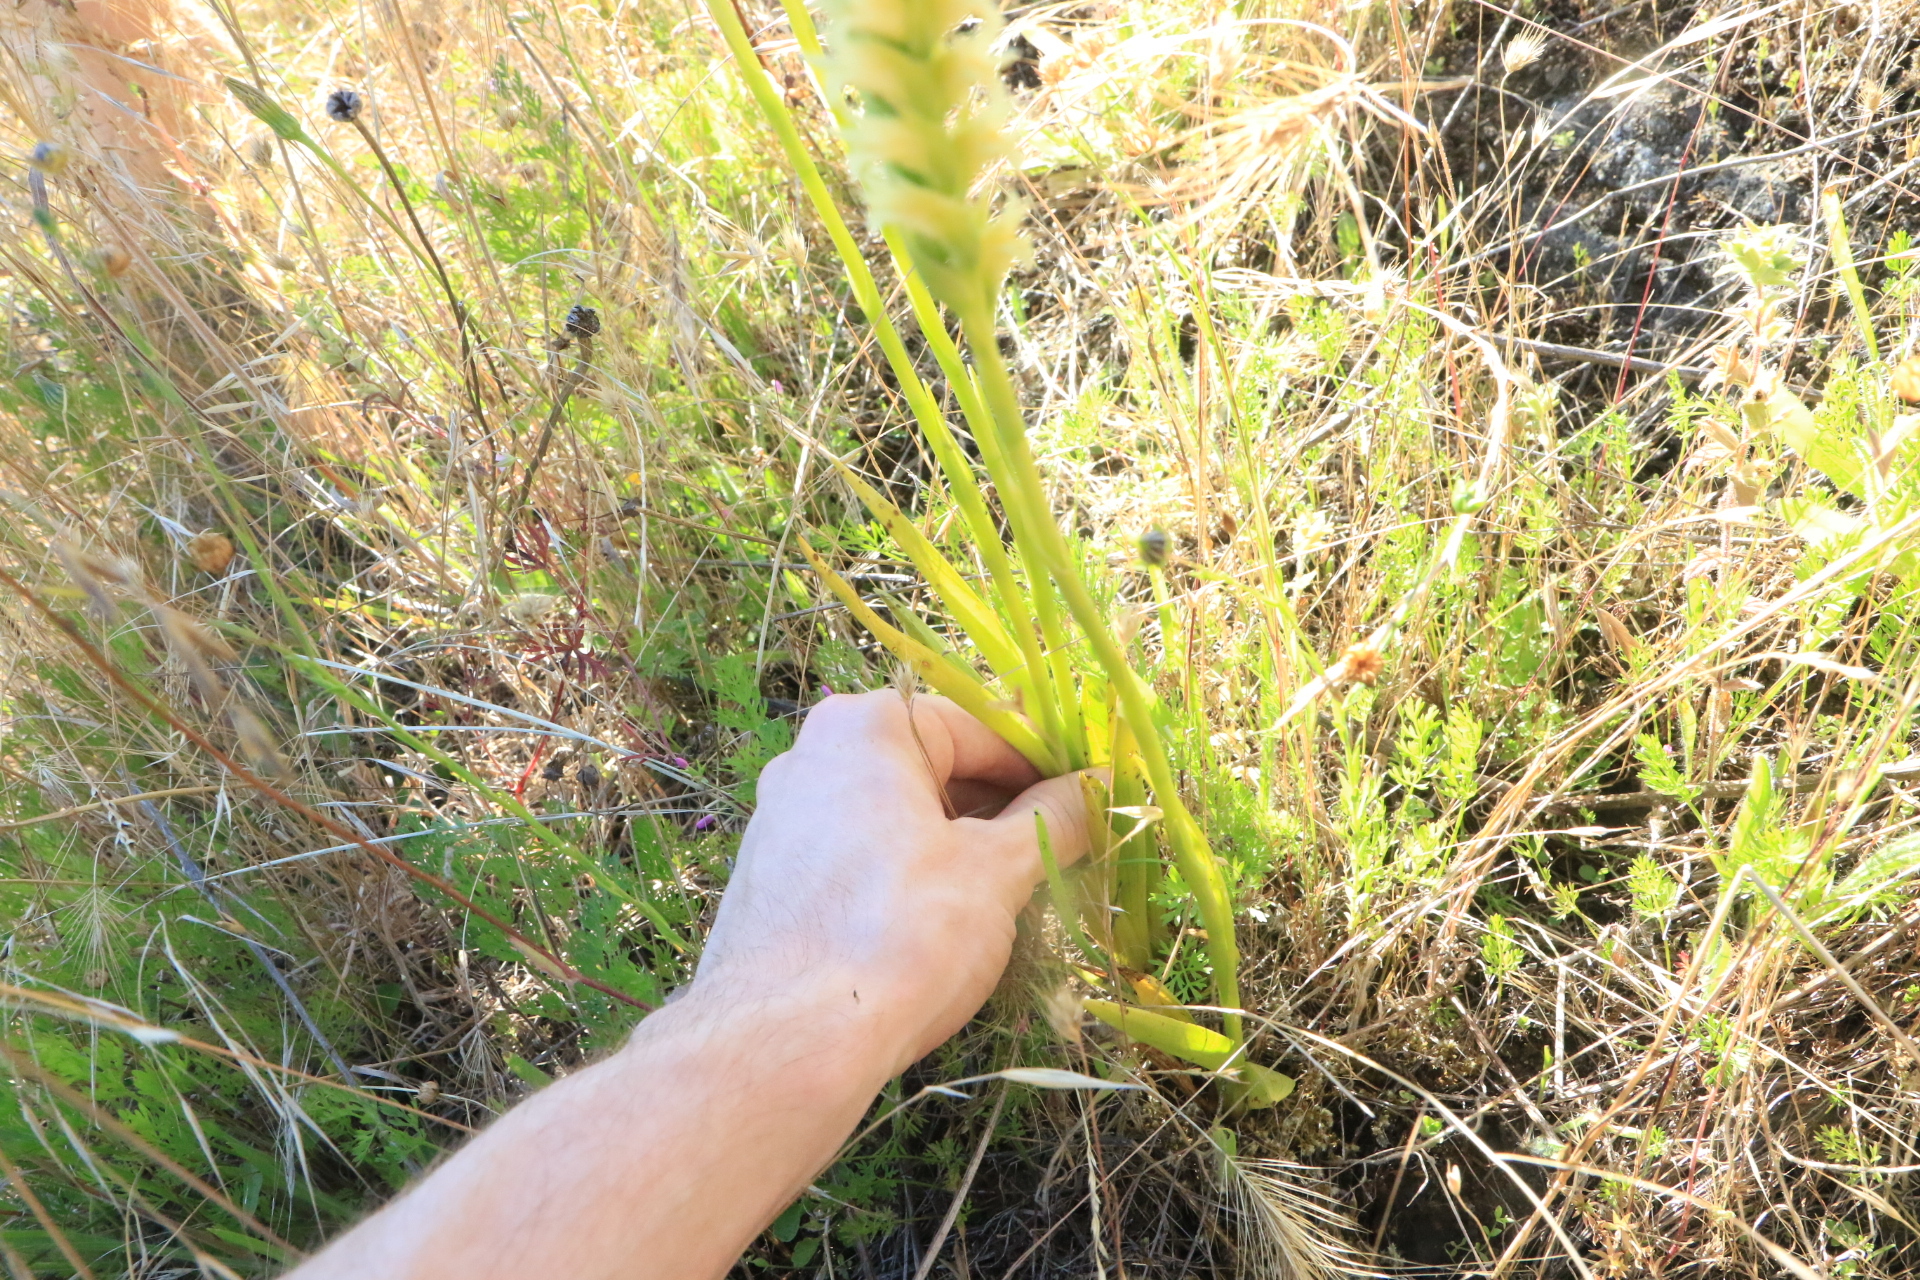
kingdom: Plantae
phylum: Tracheophyta
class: Liliopsida
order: Asparagales
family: Orchidaceae
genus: Spiranthes
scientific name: Spiranthes porrifolia
